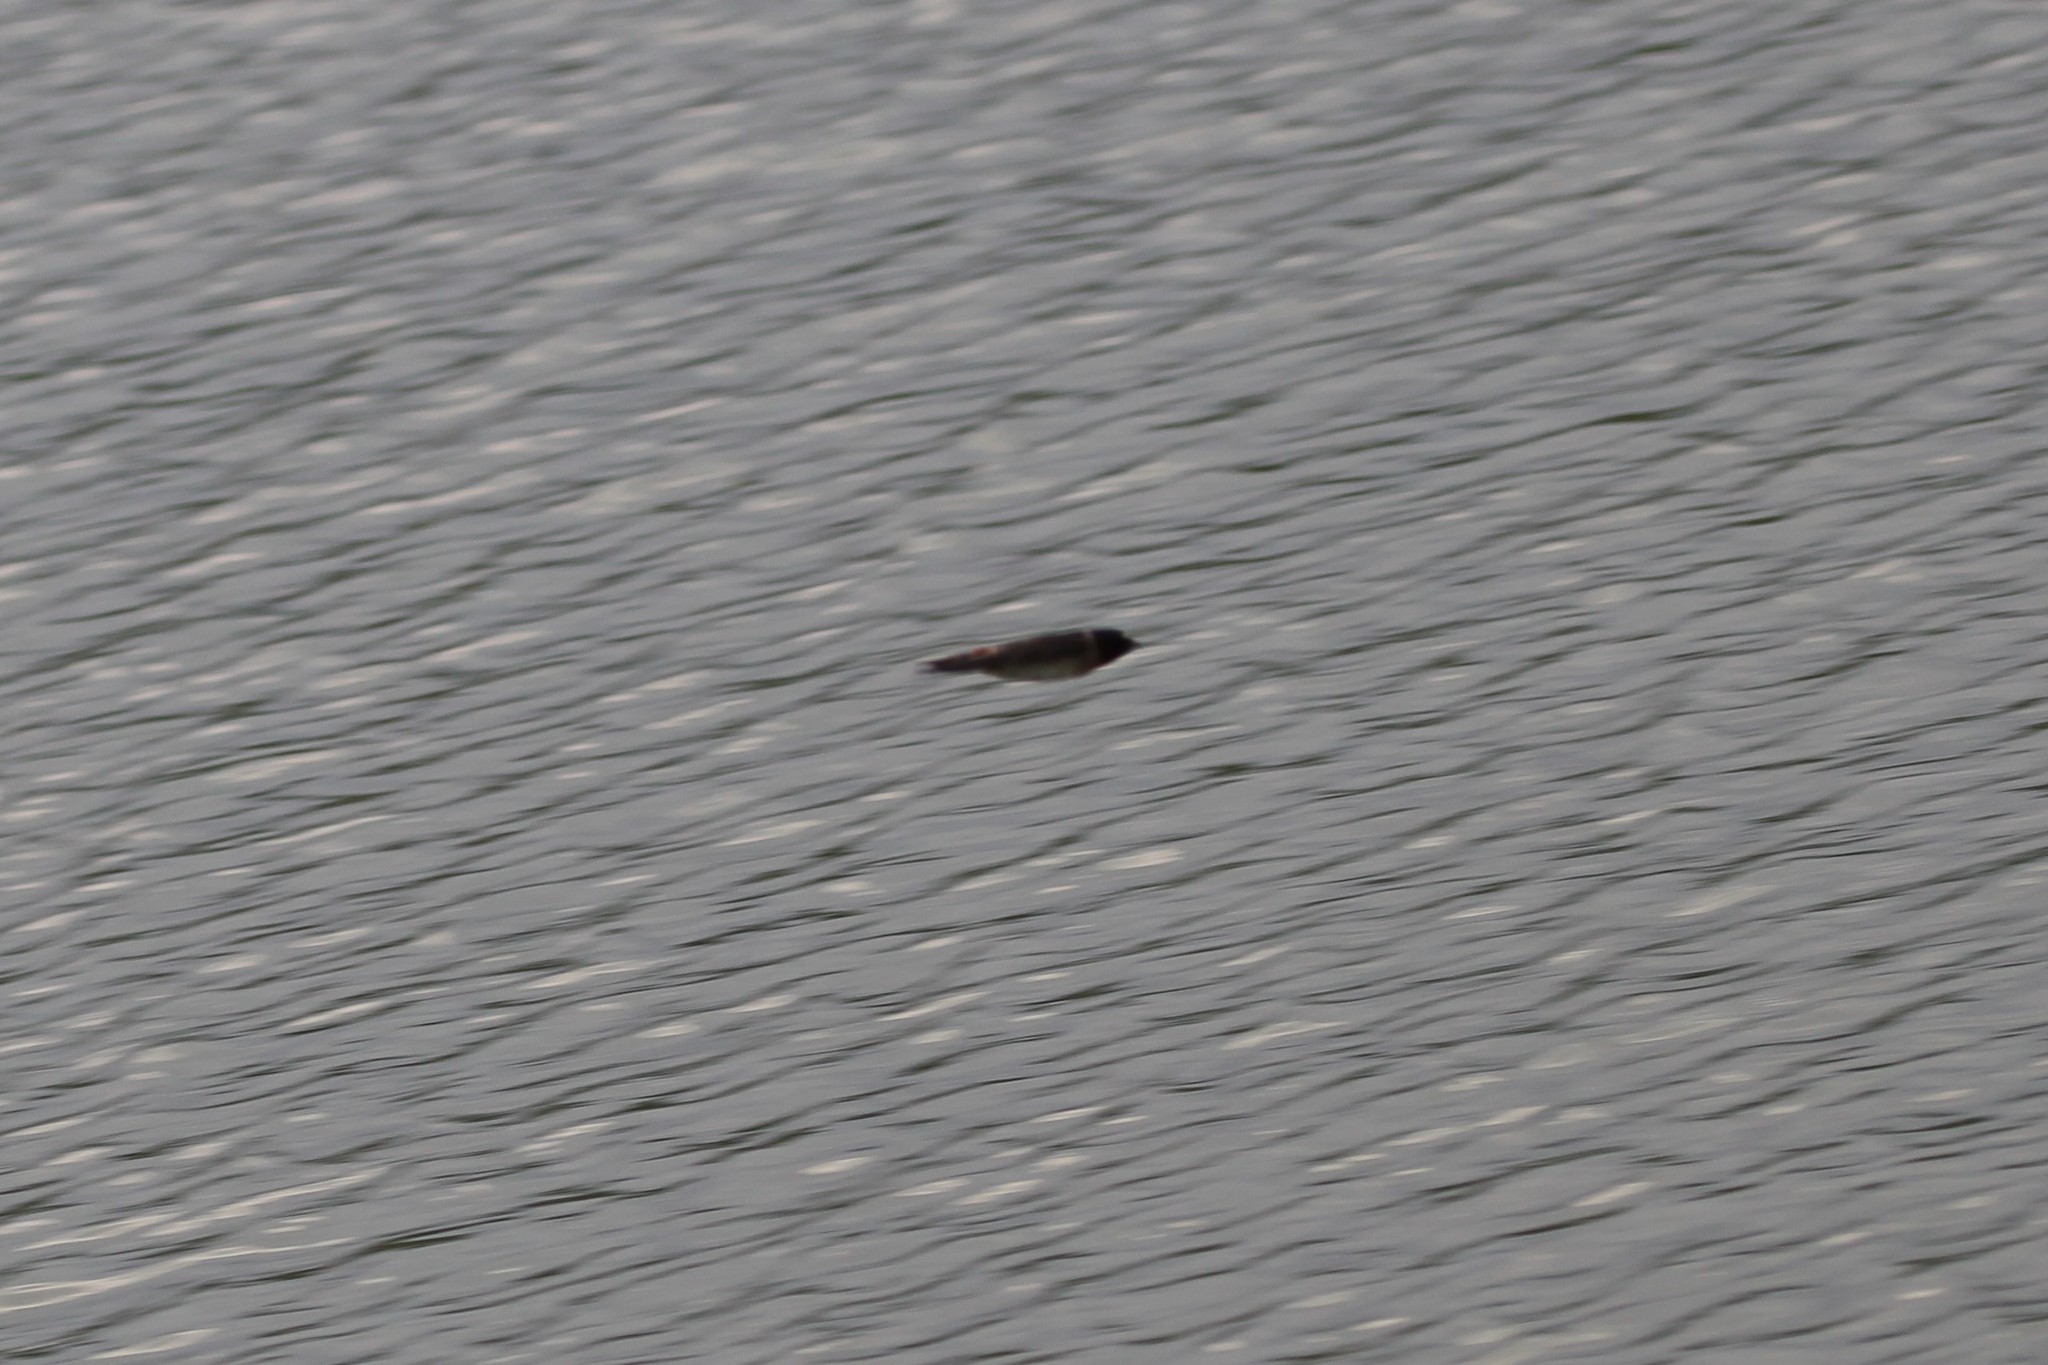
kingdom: Animalia
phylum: Chordata
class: Aves
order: Passeriformes
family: Hirundinidae
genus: Petrochelidon
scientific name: Petrochelidon pyrrhonota
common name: American cliff swallow
